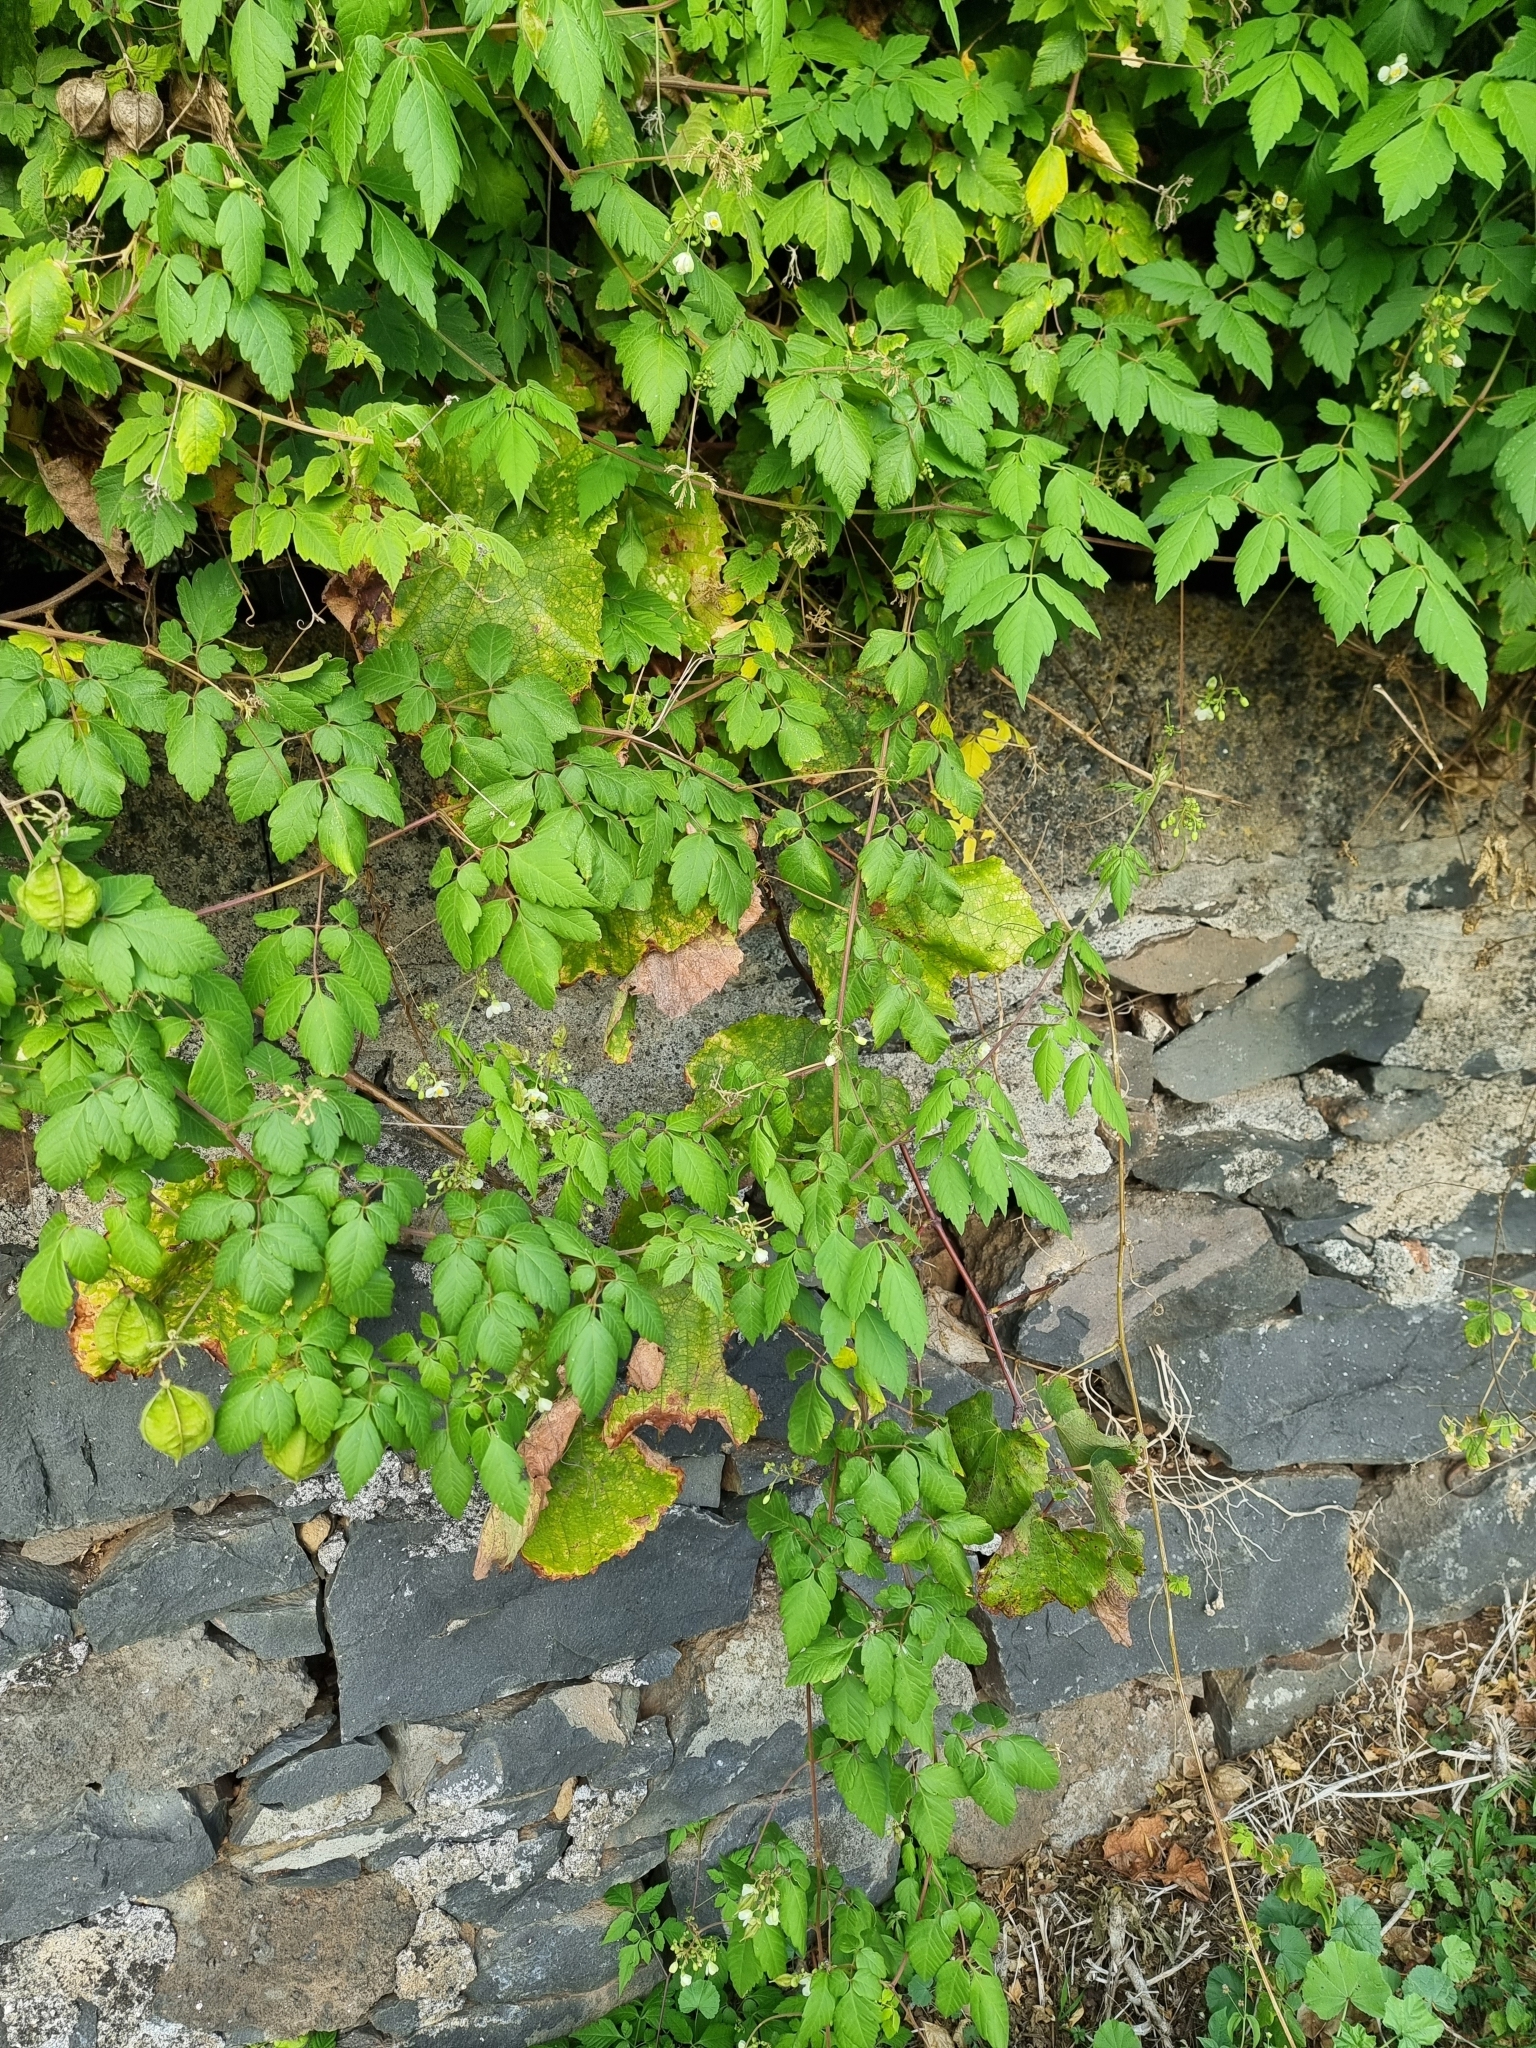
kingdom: Plantae
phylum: Tracheophyta
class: Magnoliopsida
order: Sapindales
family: Sapindaceae
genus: Cardiospermum
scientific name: Cardiospermum grandiflorum
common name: Balloon vine
